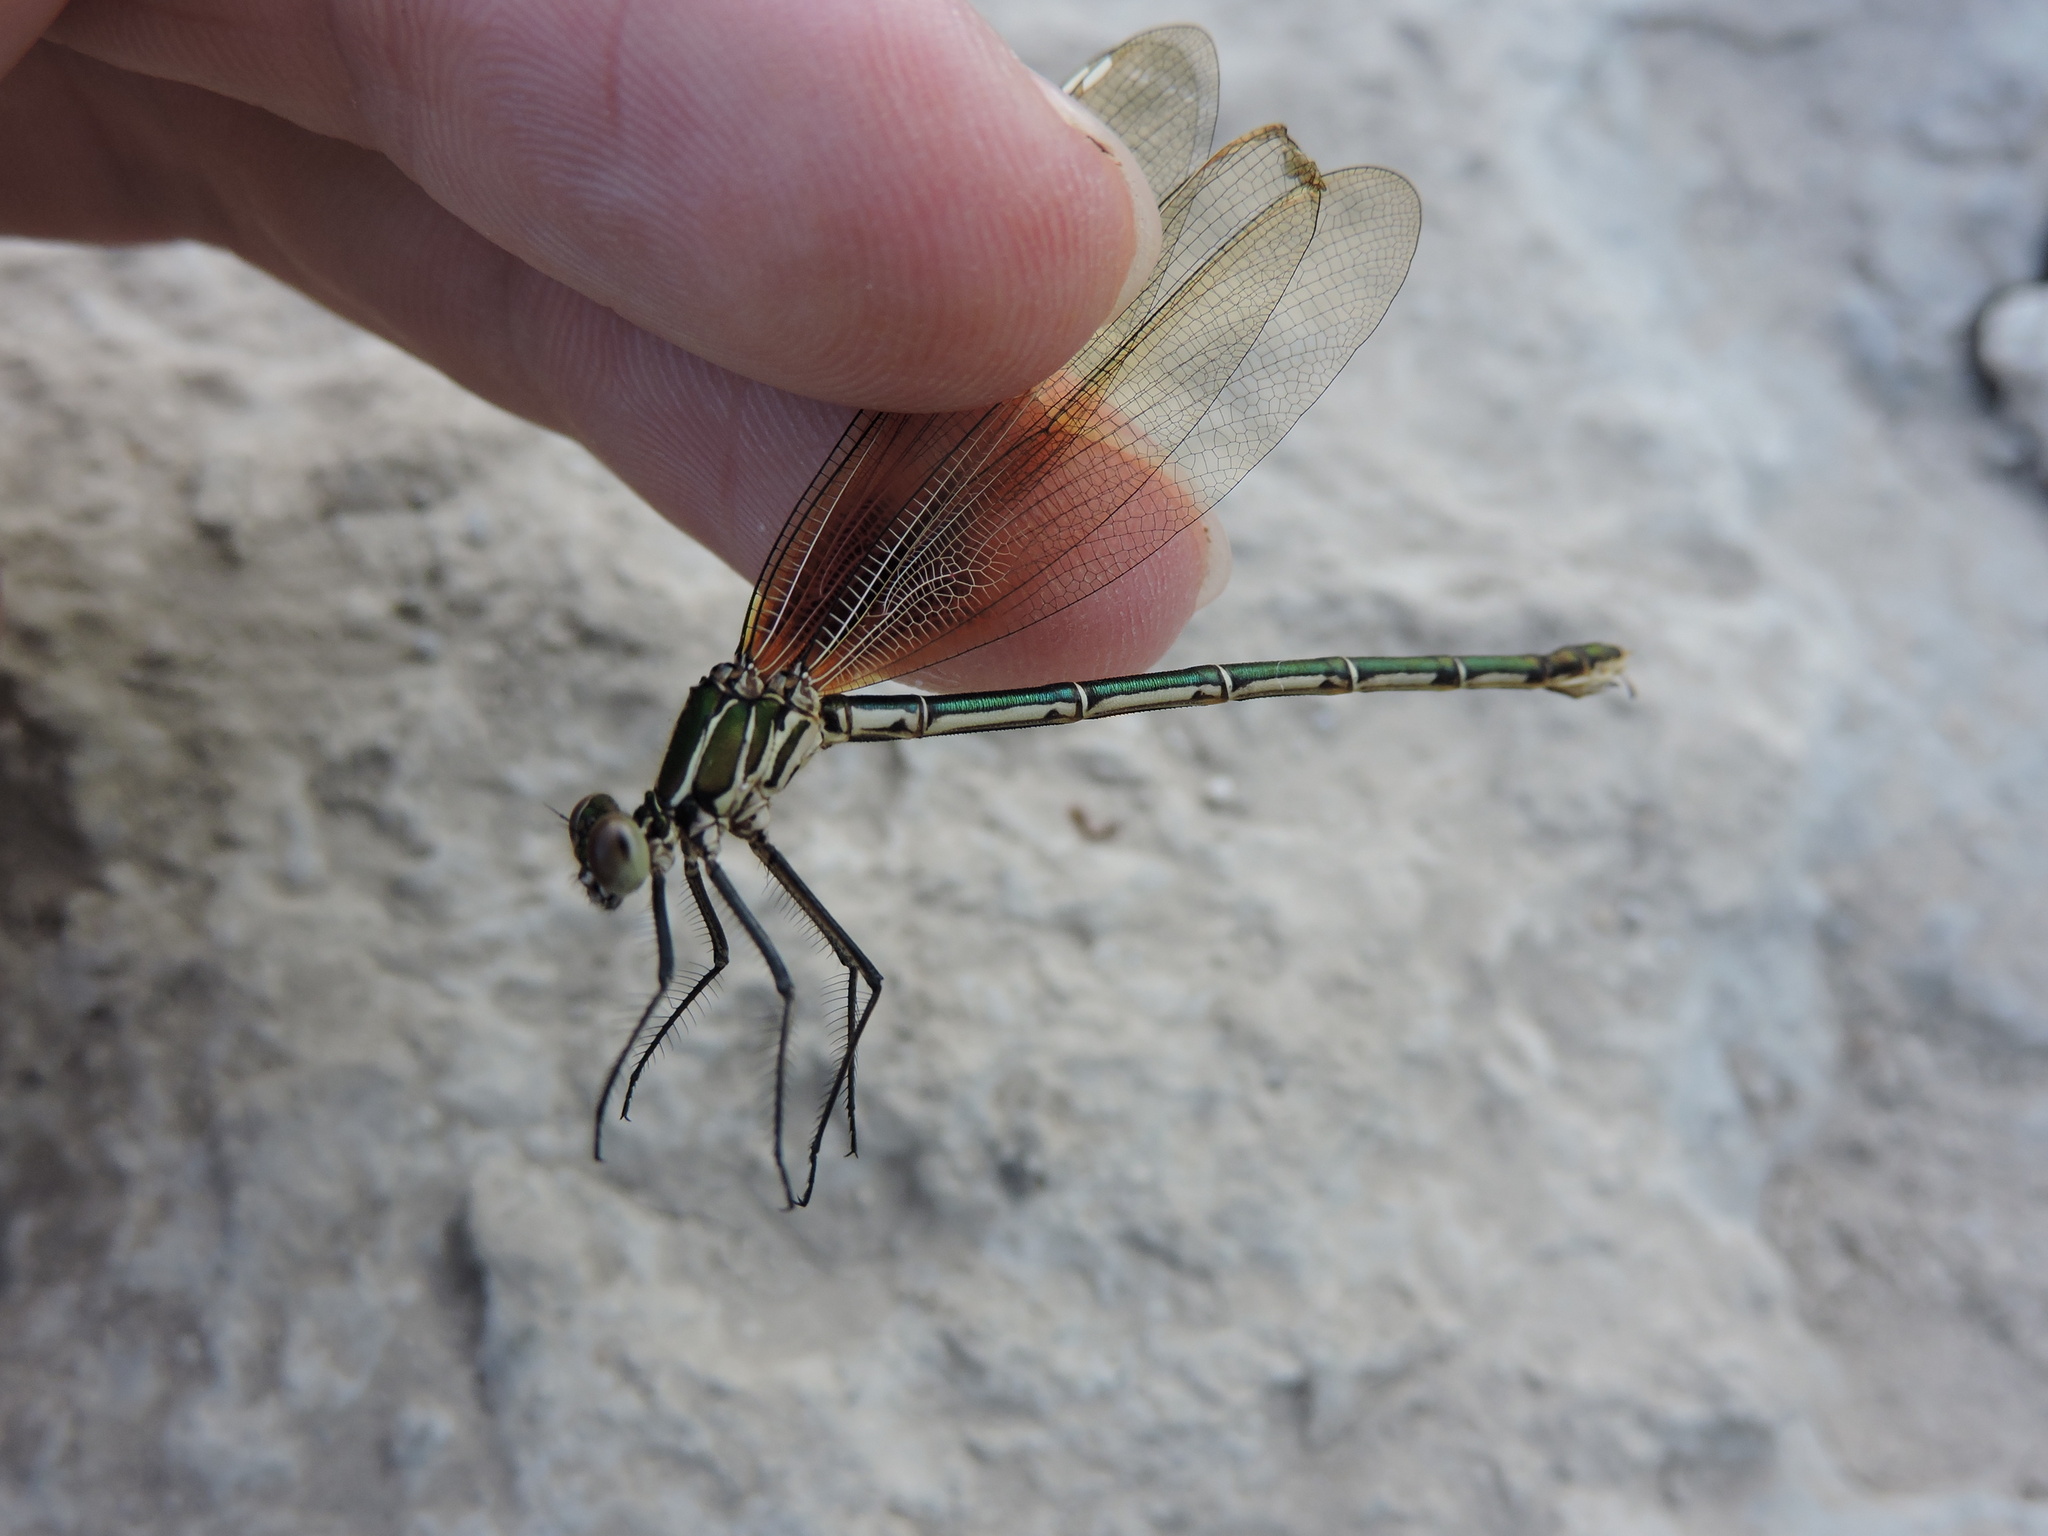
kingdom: Animalia
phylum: Arthropoda
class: Insecta
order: Odonata
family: Calopterygidae
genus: Hetaerina
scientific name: Hetaerina americana
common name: American rubyspot
